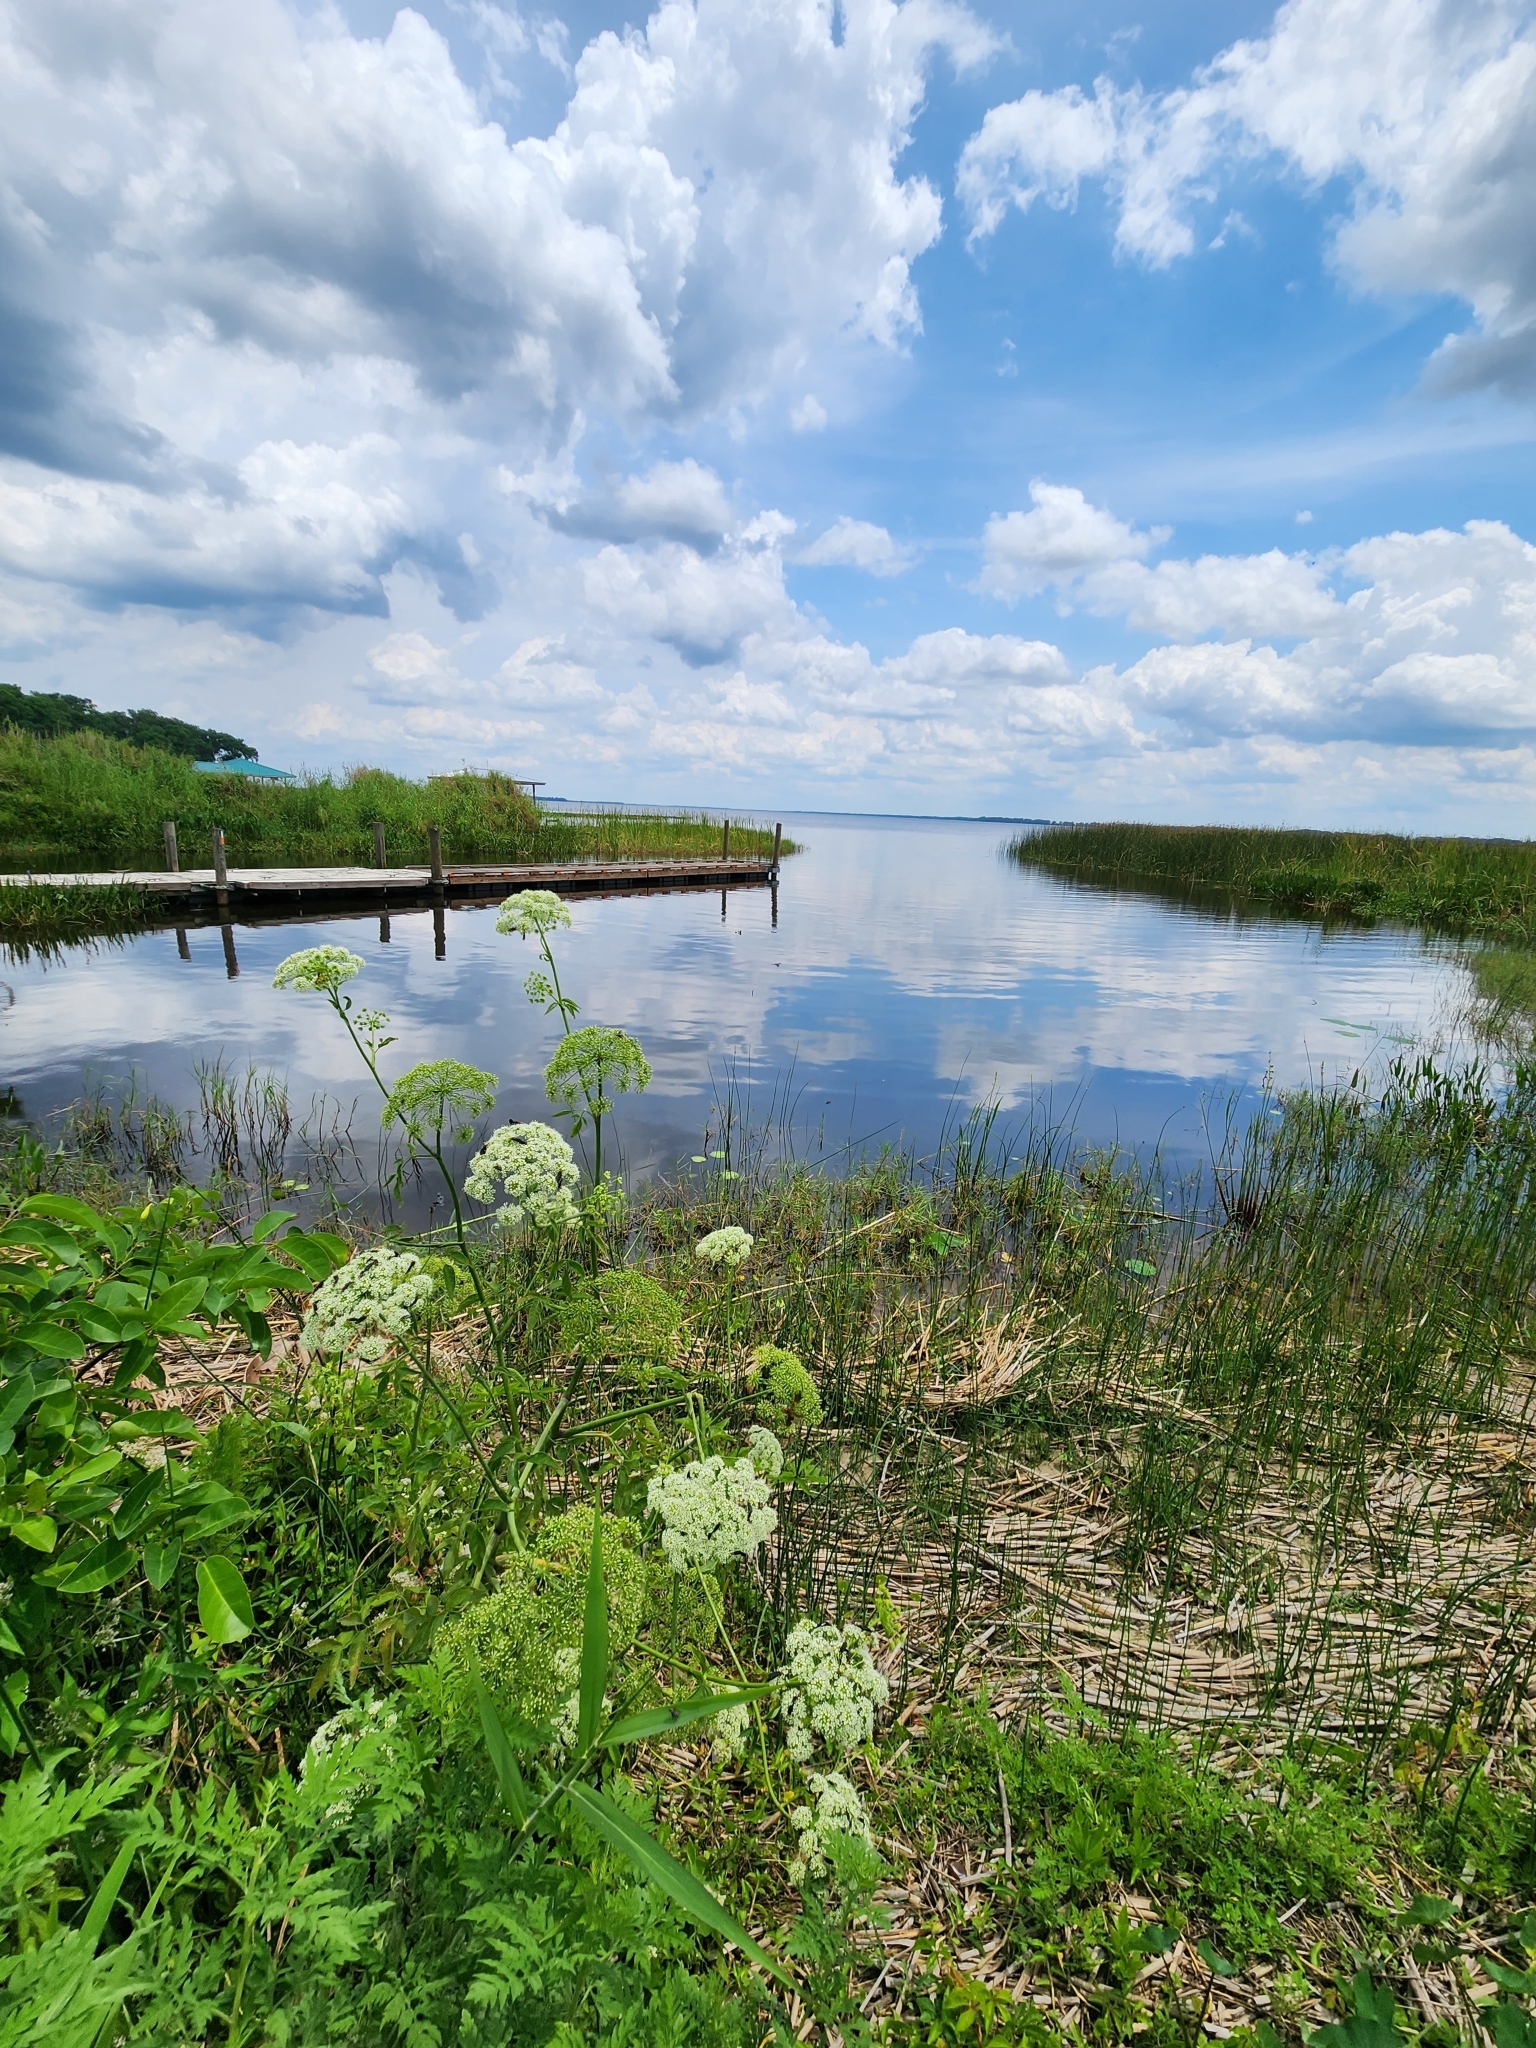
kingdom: Animalia
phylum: Arthropoda
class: Insecta
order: Hymenoptera
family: Eumenidae
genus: Polistes
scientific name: Polistes fuscatus
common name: Dark paper wasp
